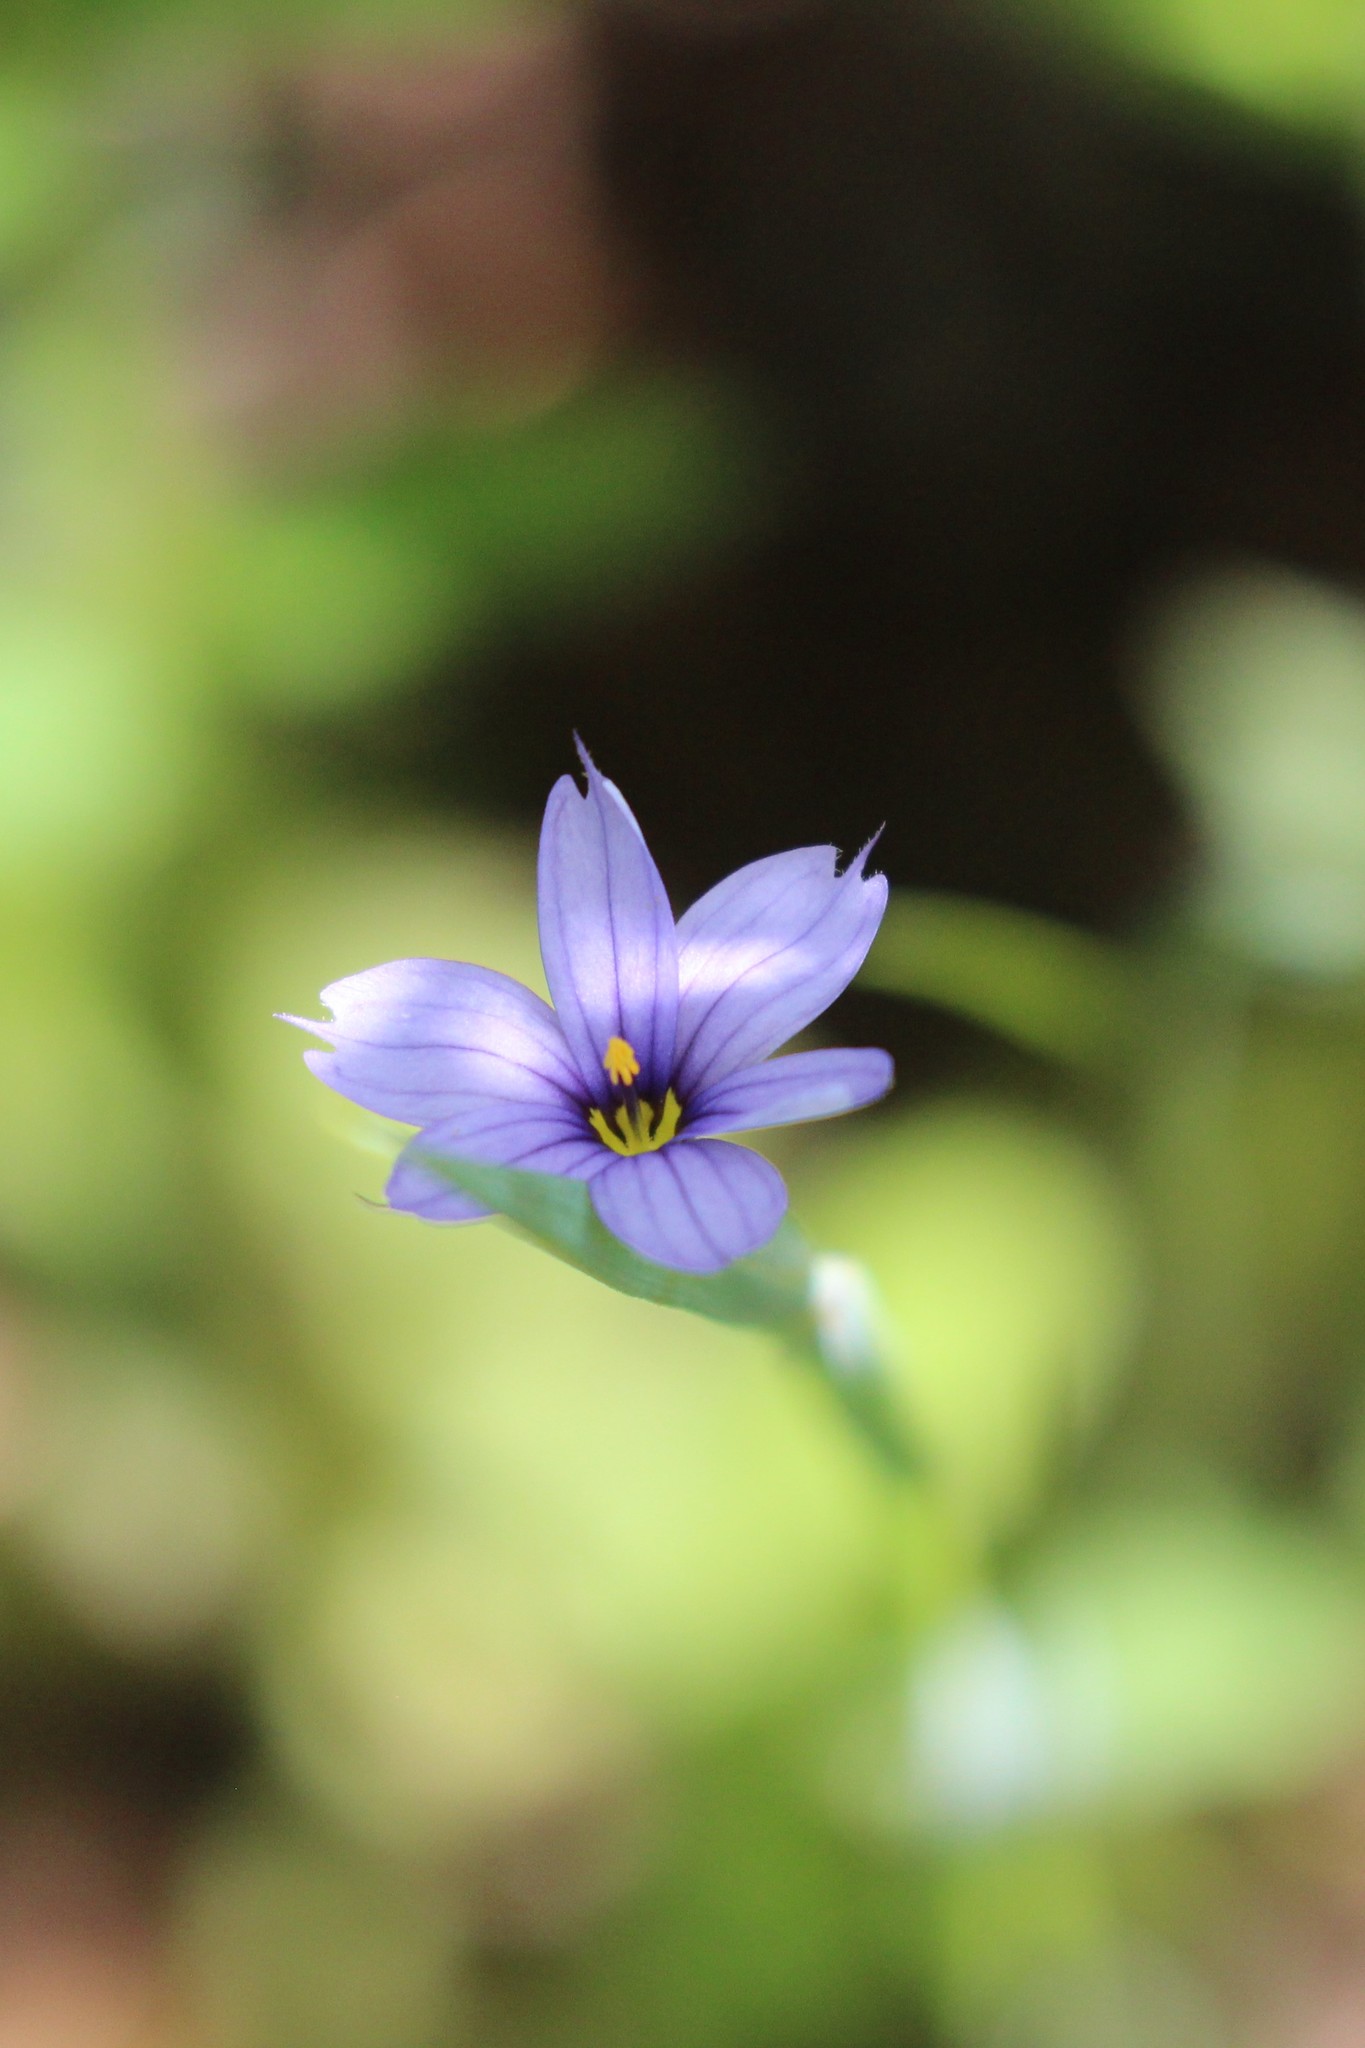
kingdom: Plantae
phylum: Tracheophyta
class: Liliopsida
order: Asparagales
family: Iridaceae
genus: Sisyrinchium
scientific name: Sisyrinchium montanum
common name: American blue-eyed-grass
